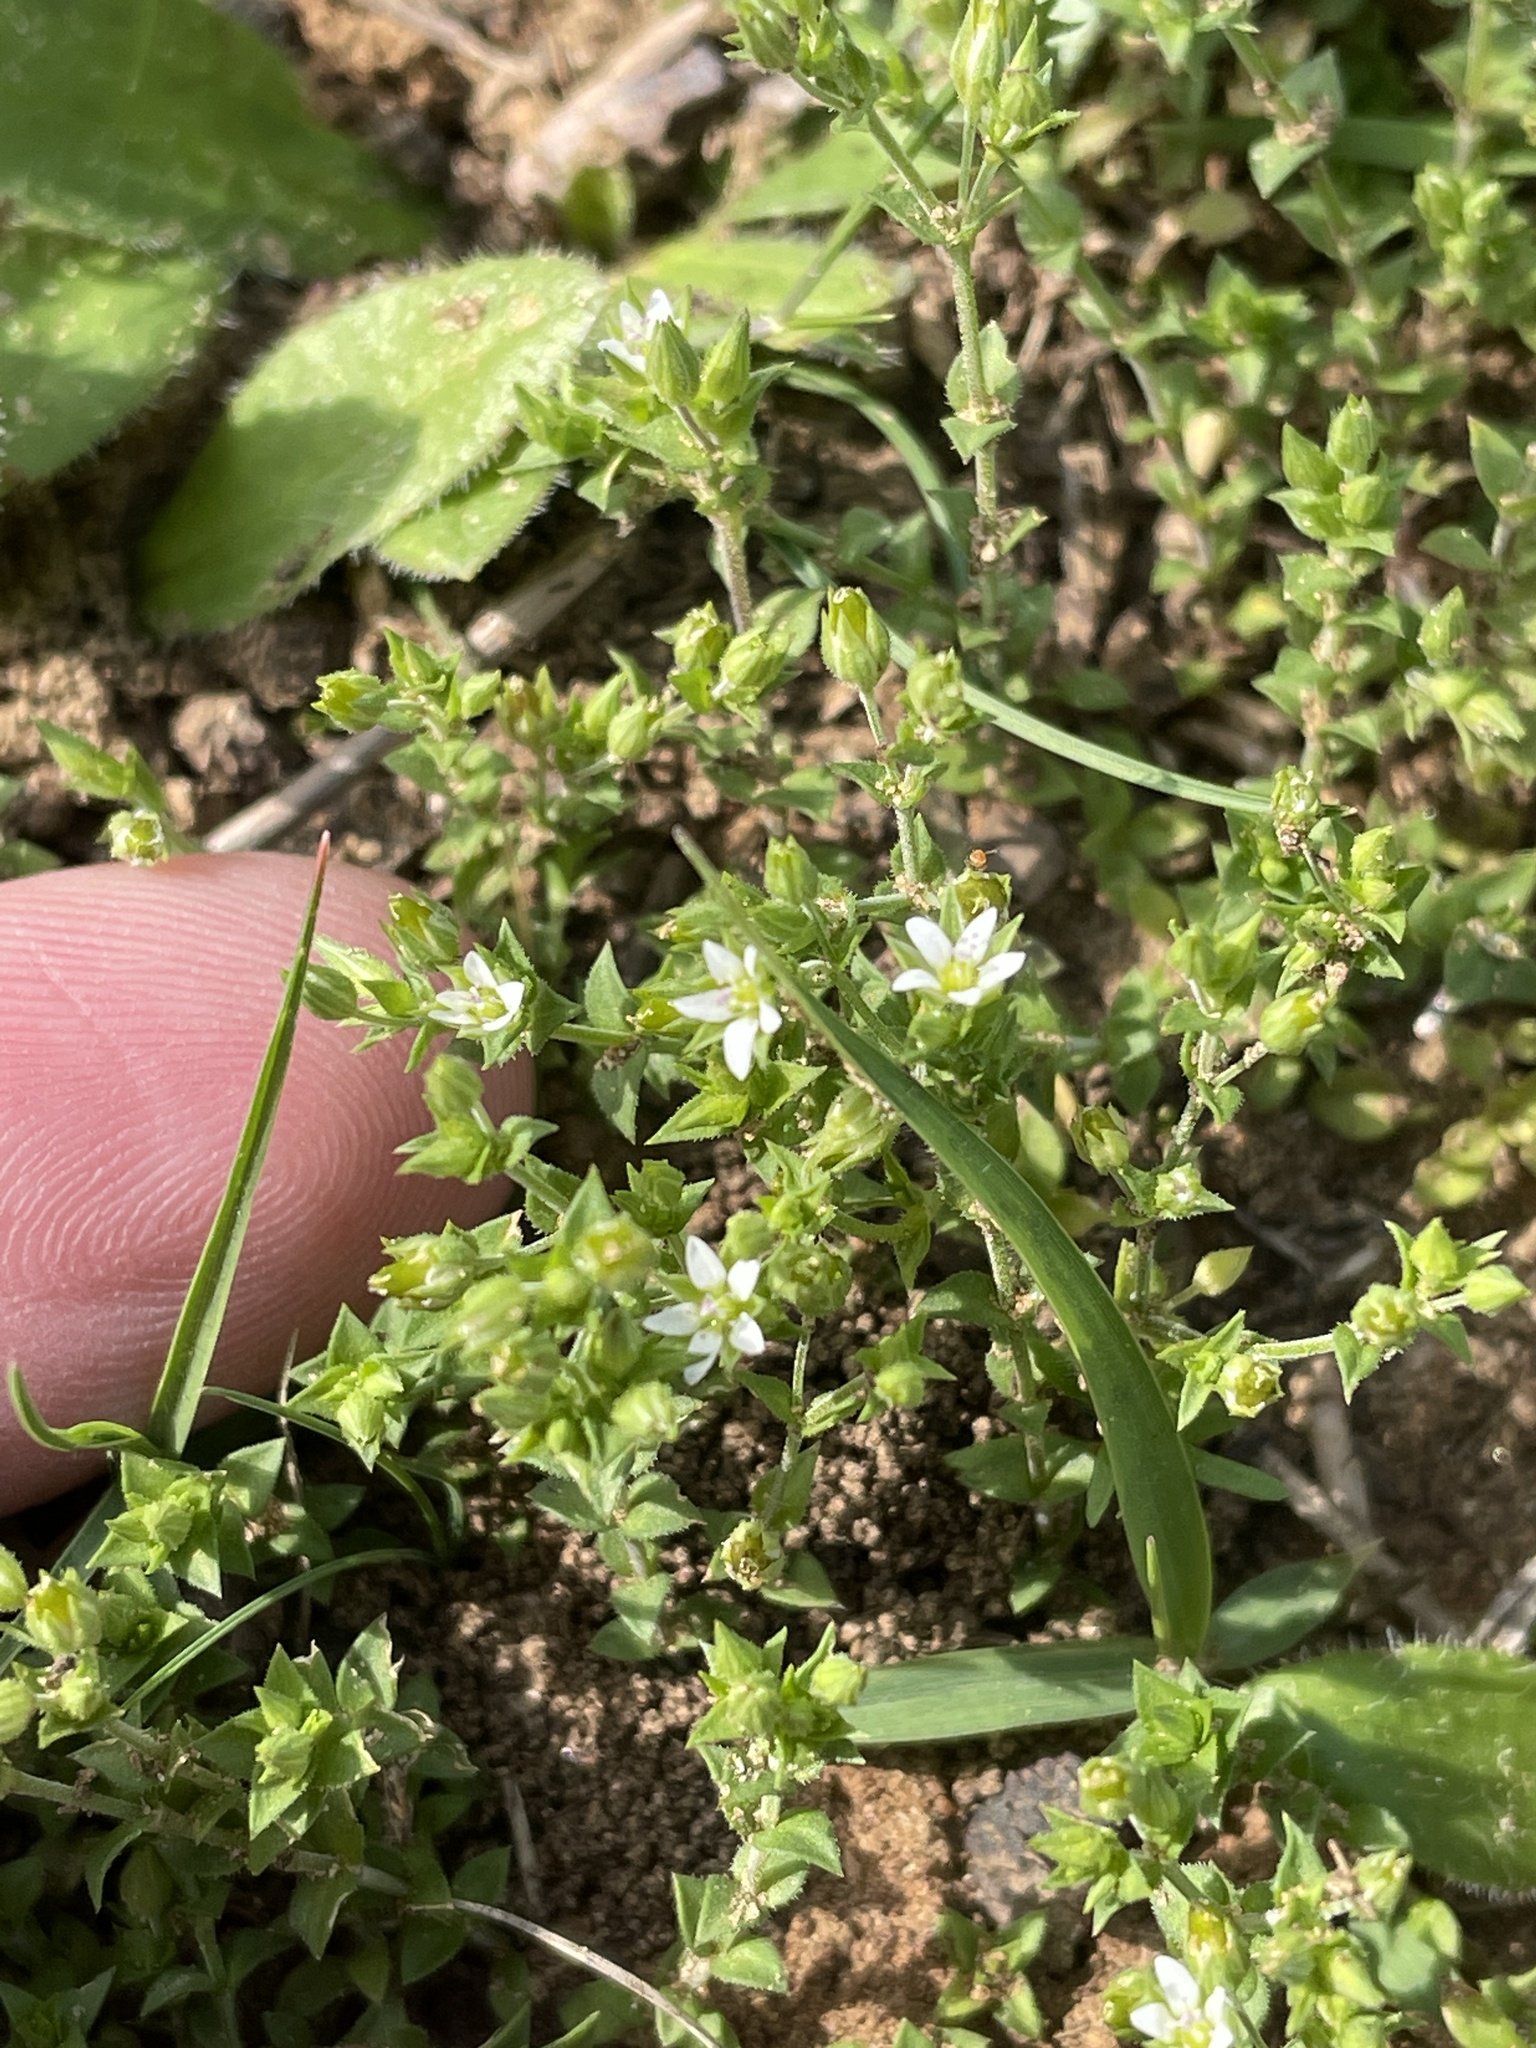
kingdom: Plantae
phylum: Tracheophyta
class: Magnoliopsida
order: Caryophyllales
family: Caryophyllaceae
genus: Arenaria
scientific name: Arenaria serpyllifolia
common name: Thyme-leaved sandwort
